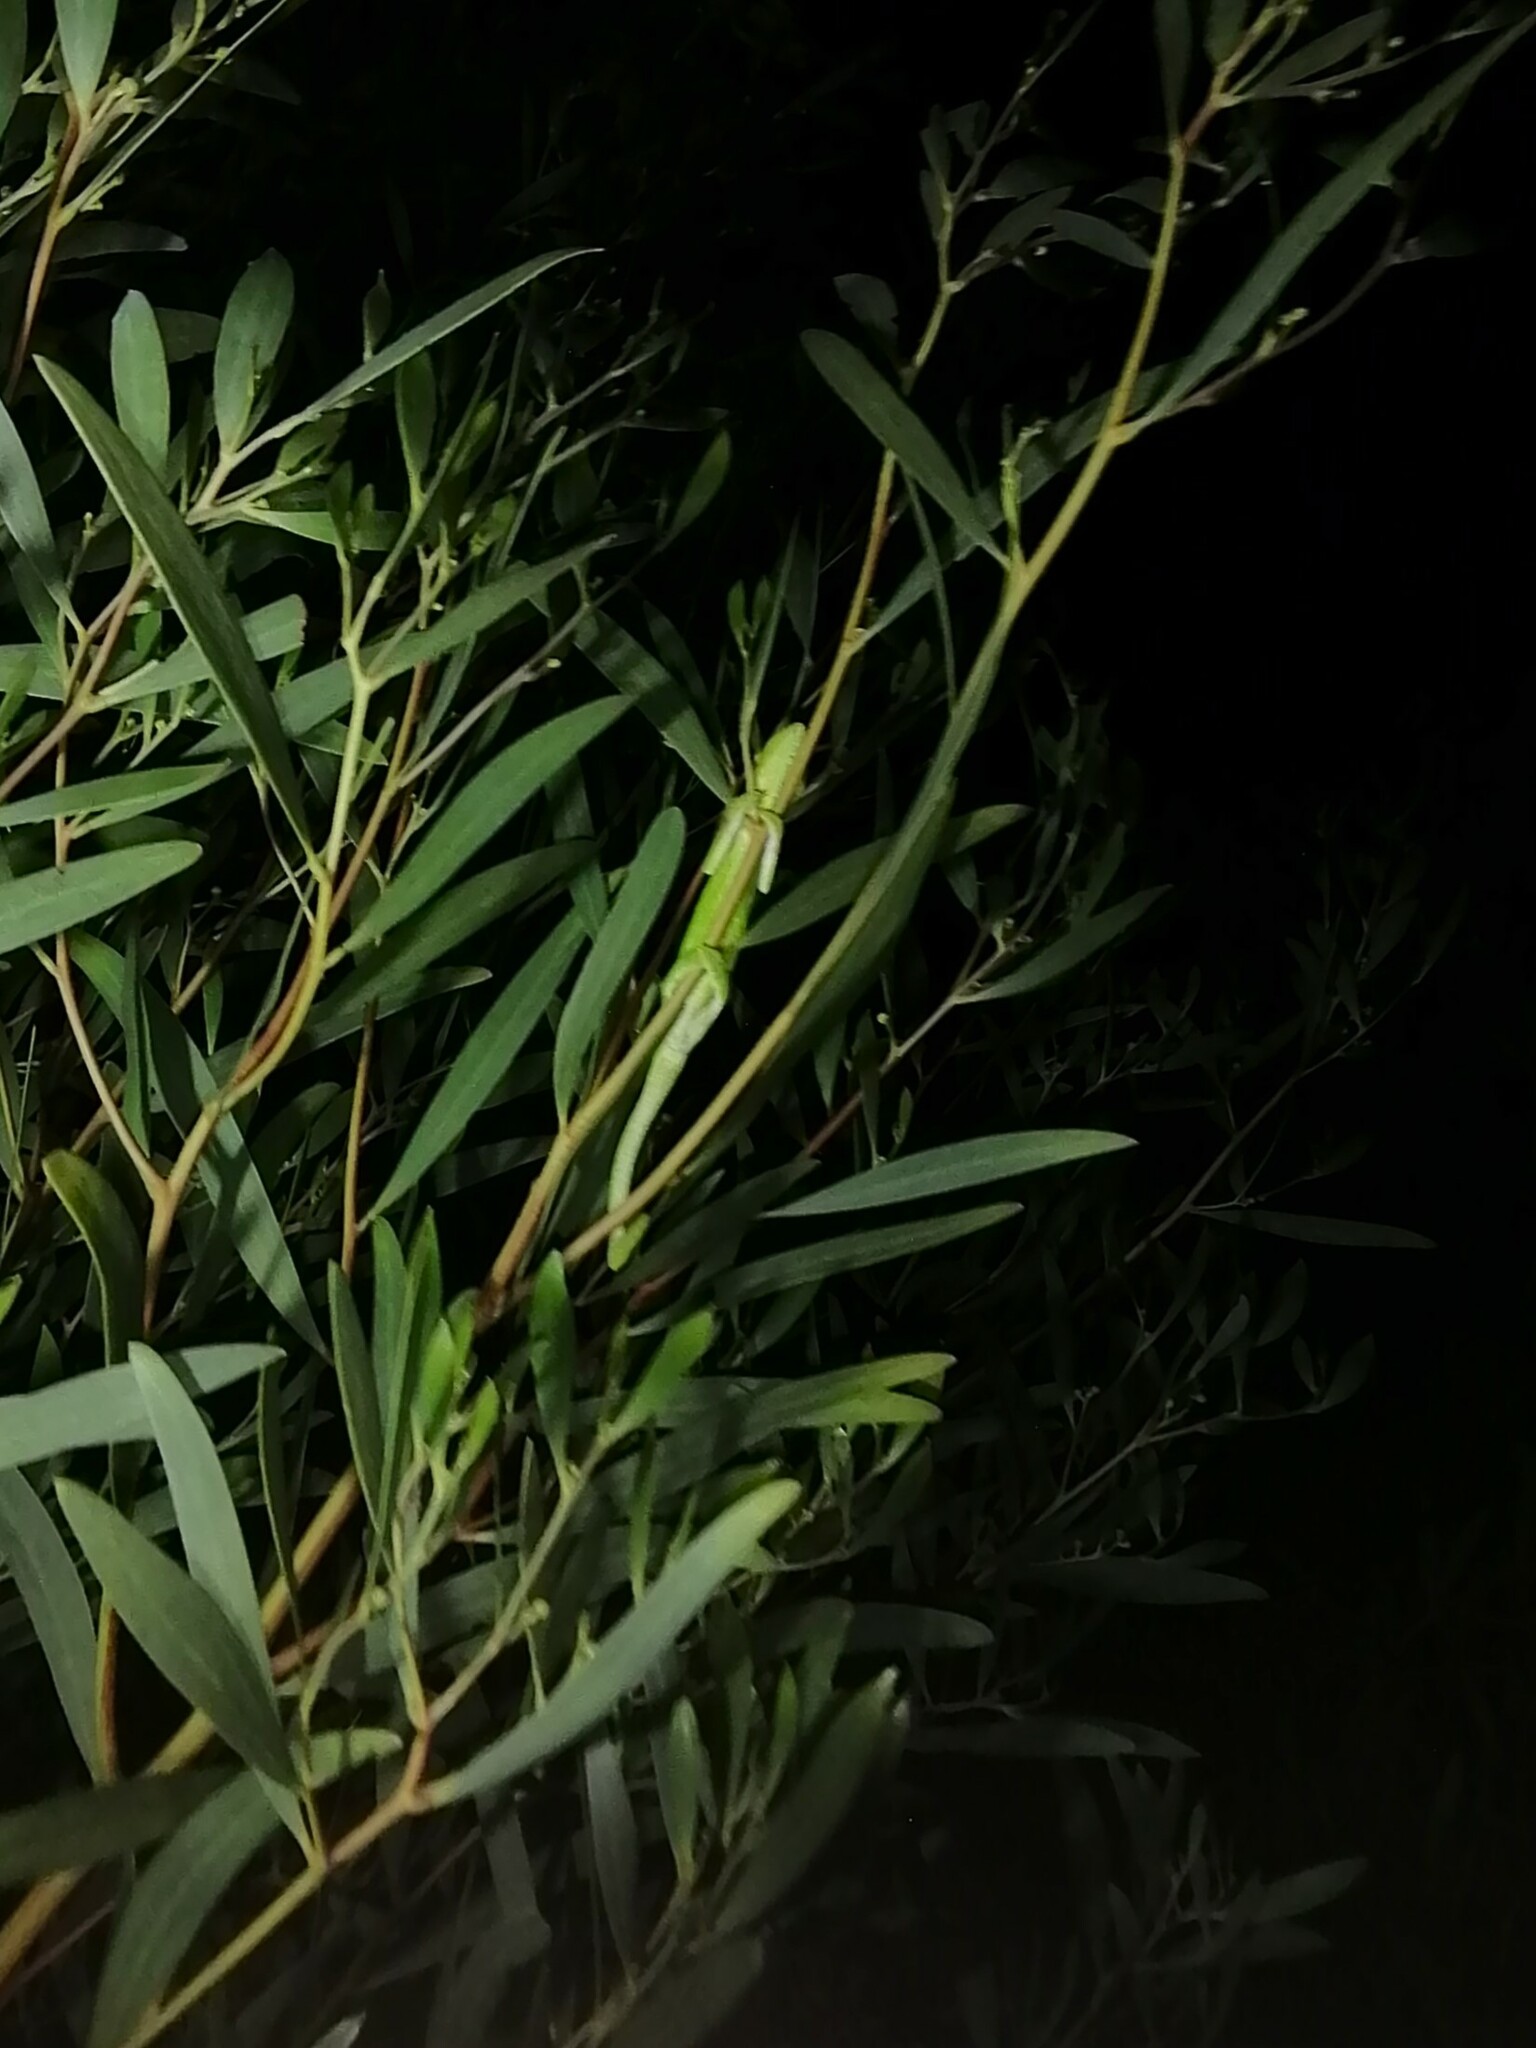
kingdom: Animalia
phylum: Chordata
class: Squamata
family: Chamaeleonidae
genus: Bradypodion
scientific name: Bradypodion pumilum
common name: Cape dwarf chameleon
